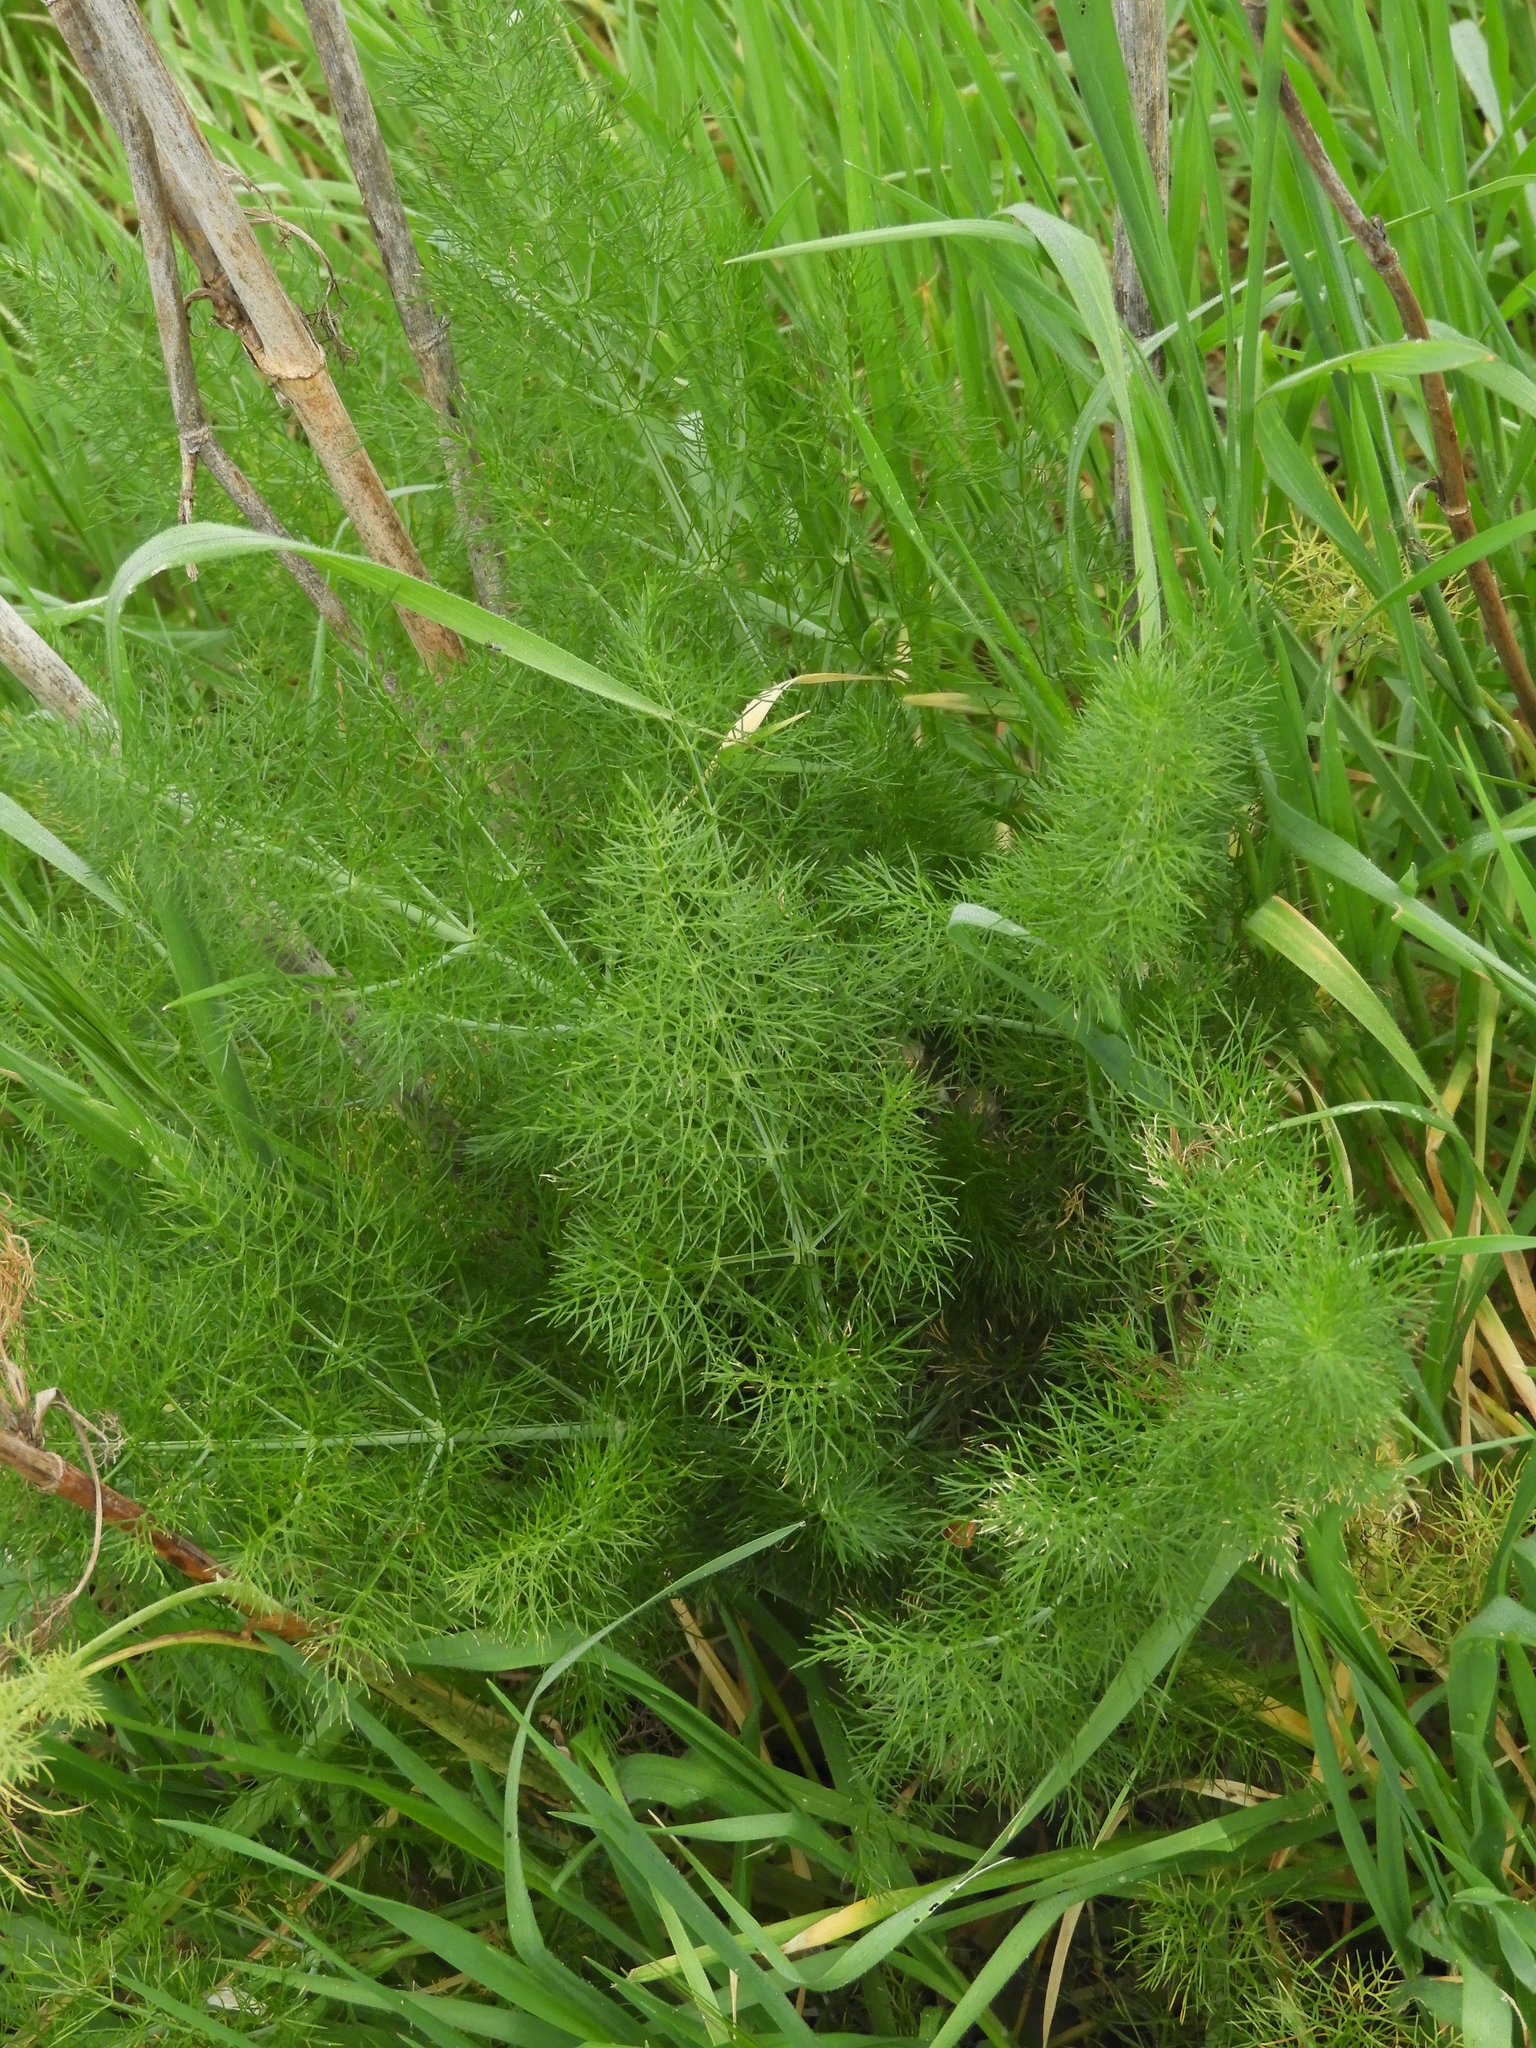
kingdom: Plantae
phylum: Tracheophyta
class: Magnoliopsida
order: Apiales
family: Apiaceae
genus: Foeniculum
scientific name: Foeniculum vulgare
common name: Fennel
